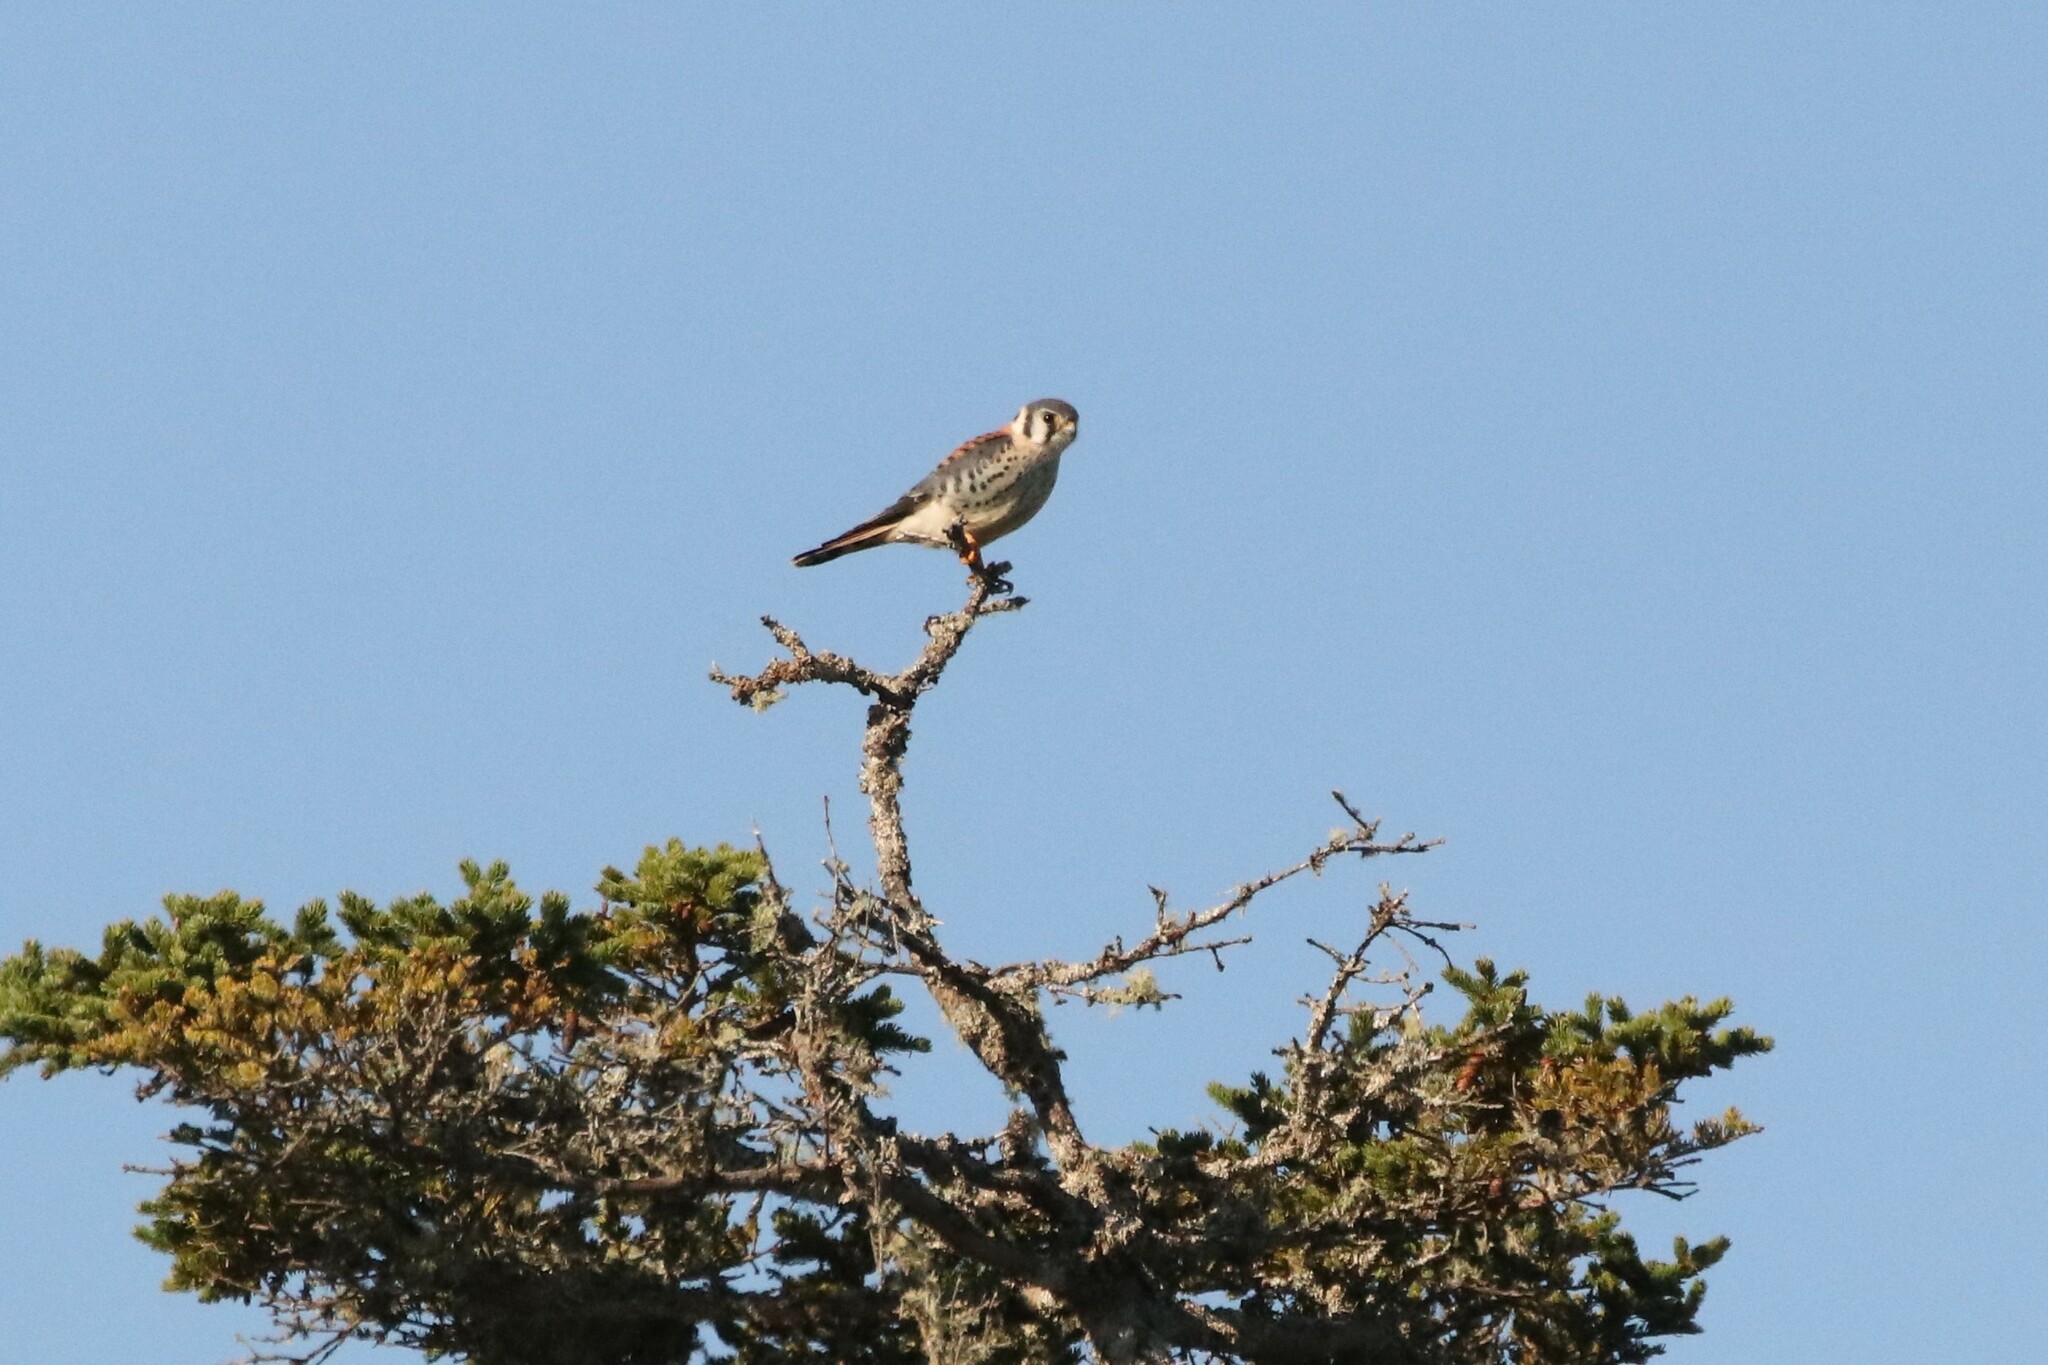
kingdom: Animalia
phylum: Chordata
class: Aves
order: Falconiformes
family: Falconidae
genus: Falco
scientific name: Falco sparverius
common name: American kestrel
